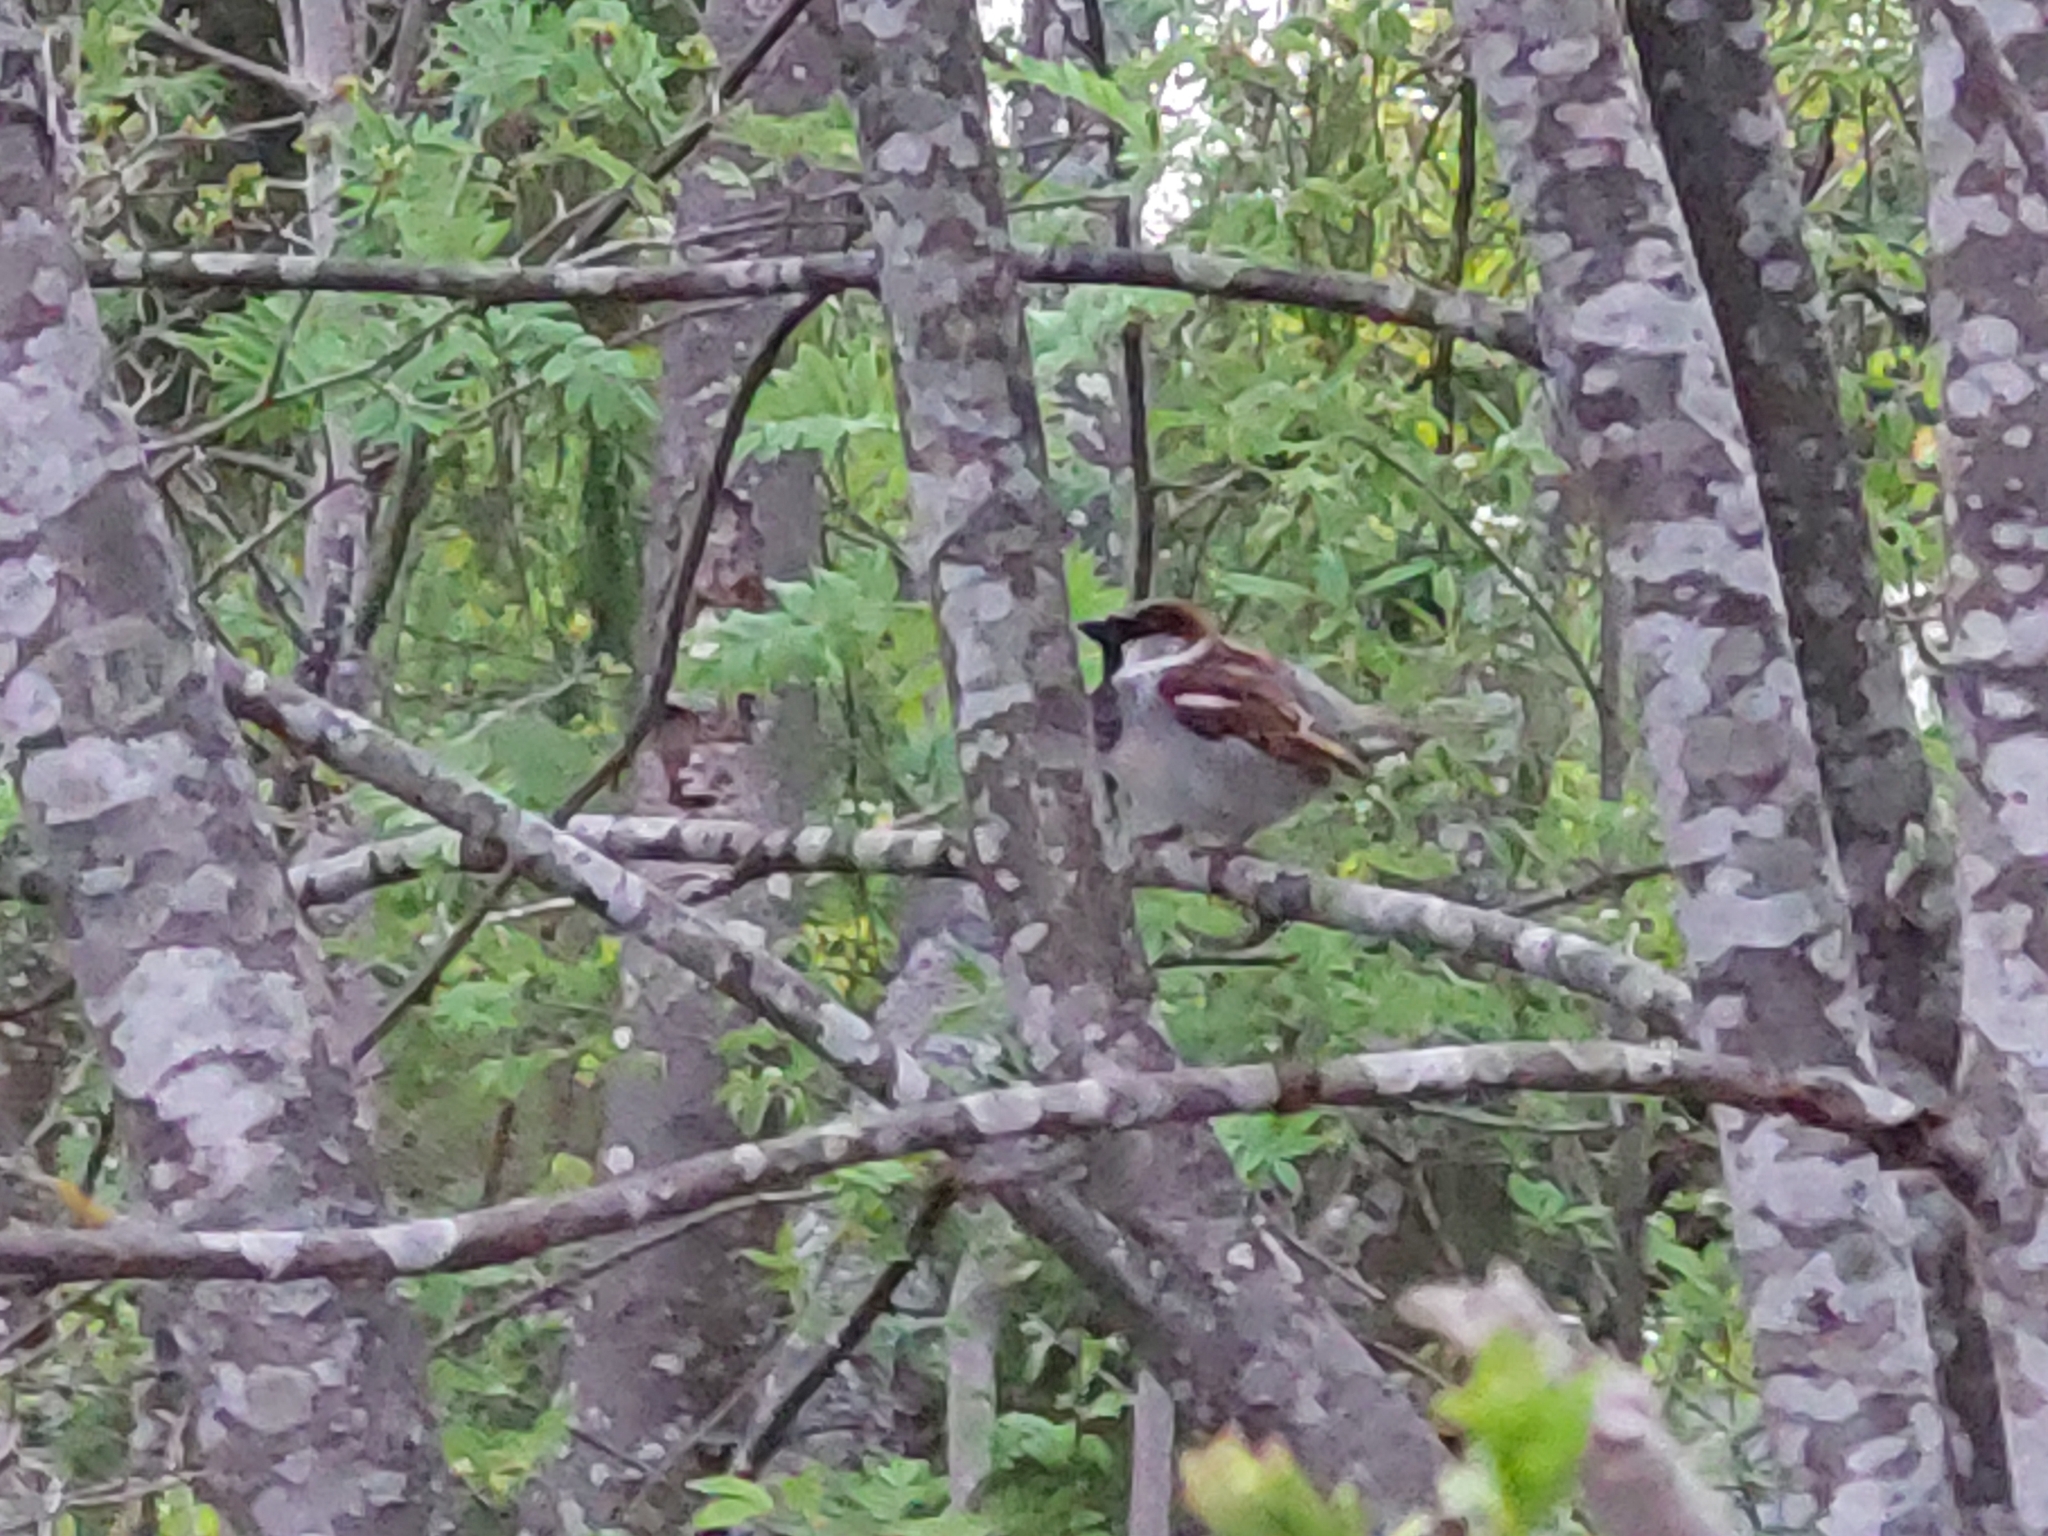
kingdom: Animalia
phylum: Chordata
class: Aves
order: Passeriformes
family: Passeridae
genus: Passer
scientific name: Passer domesticus
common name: House sparrow
